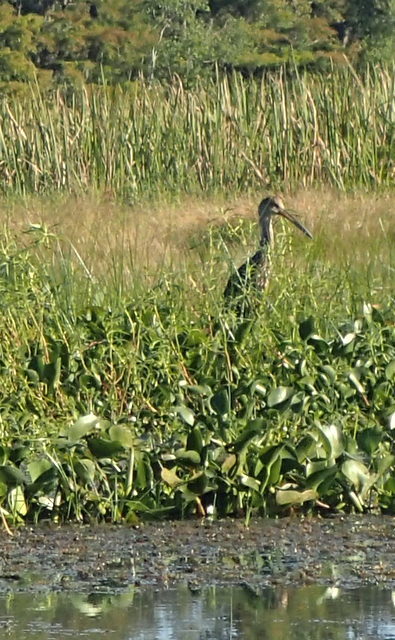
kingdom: Animalia
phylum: Chordata
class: Aves
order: Gruiformes
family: Aramidae
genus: Aramus
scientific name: Aramus guarauna
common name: Limpkin
